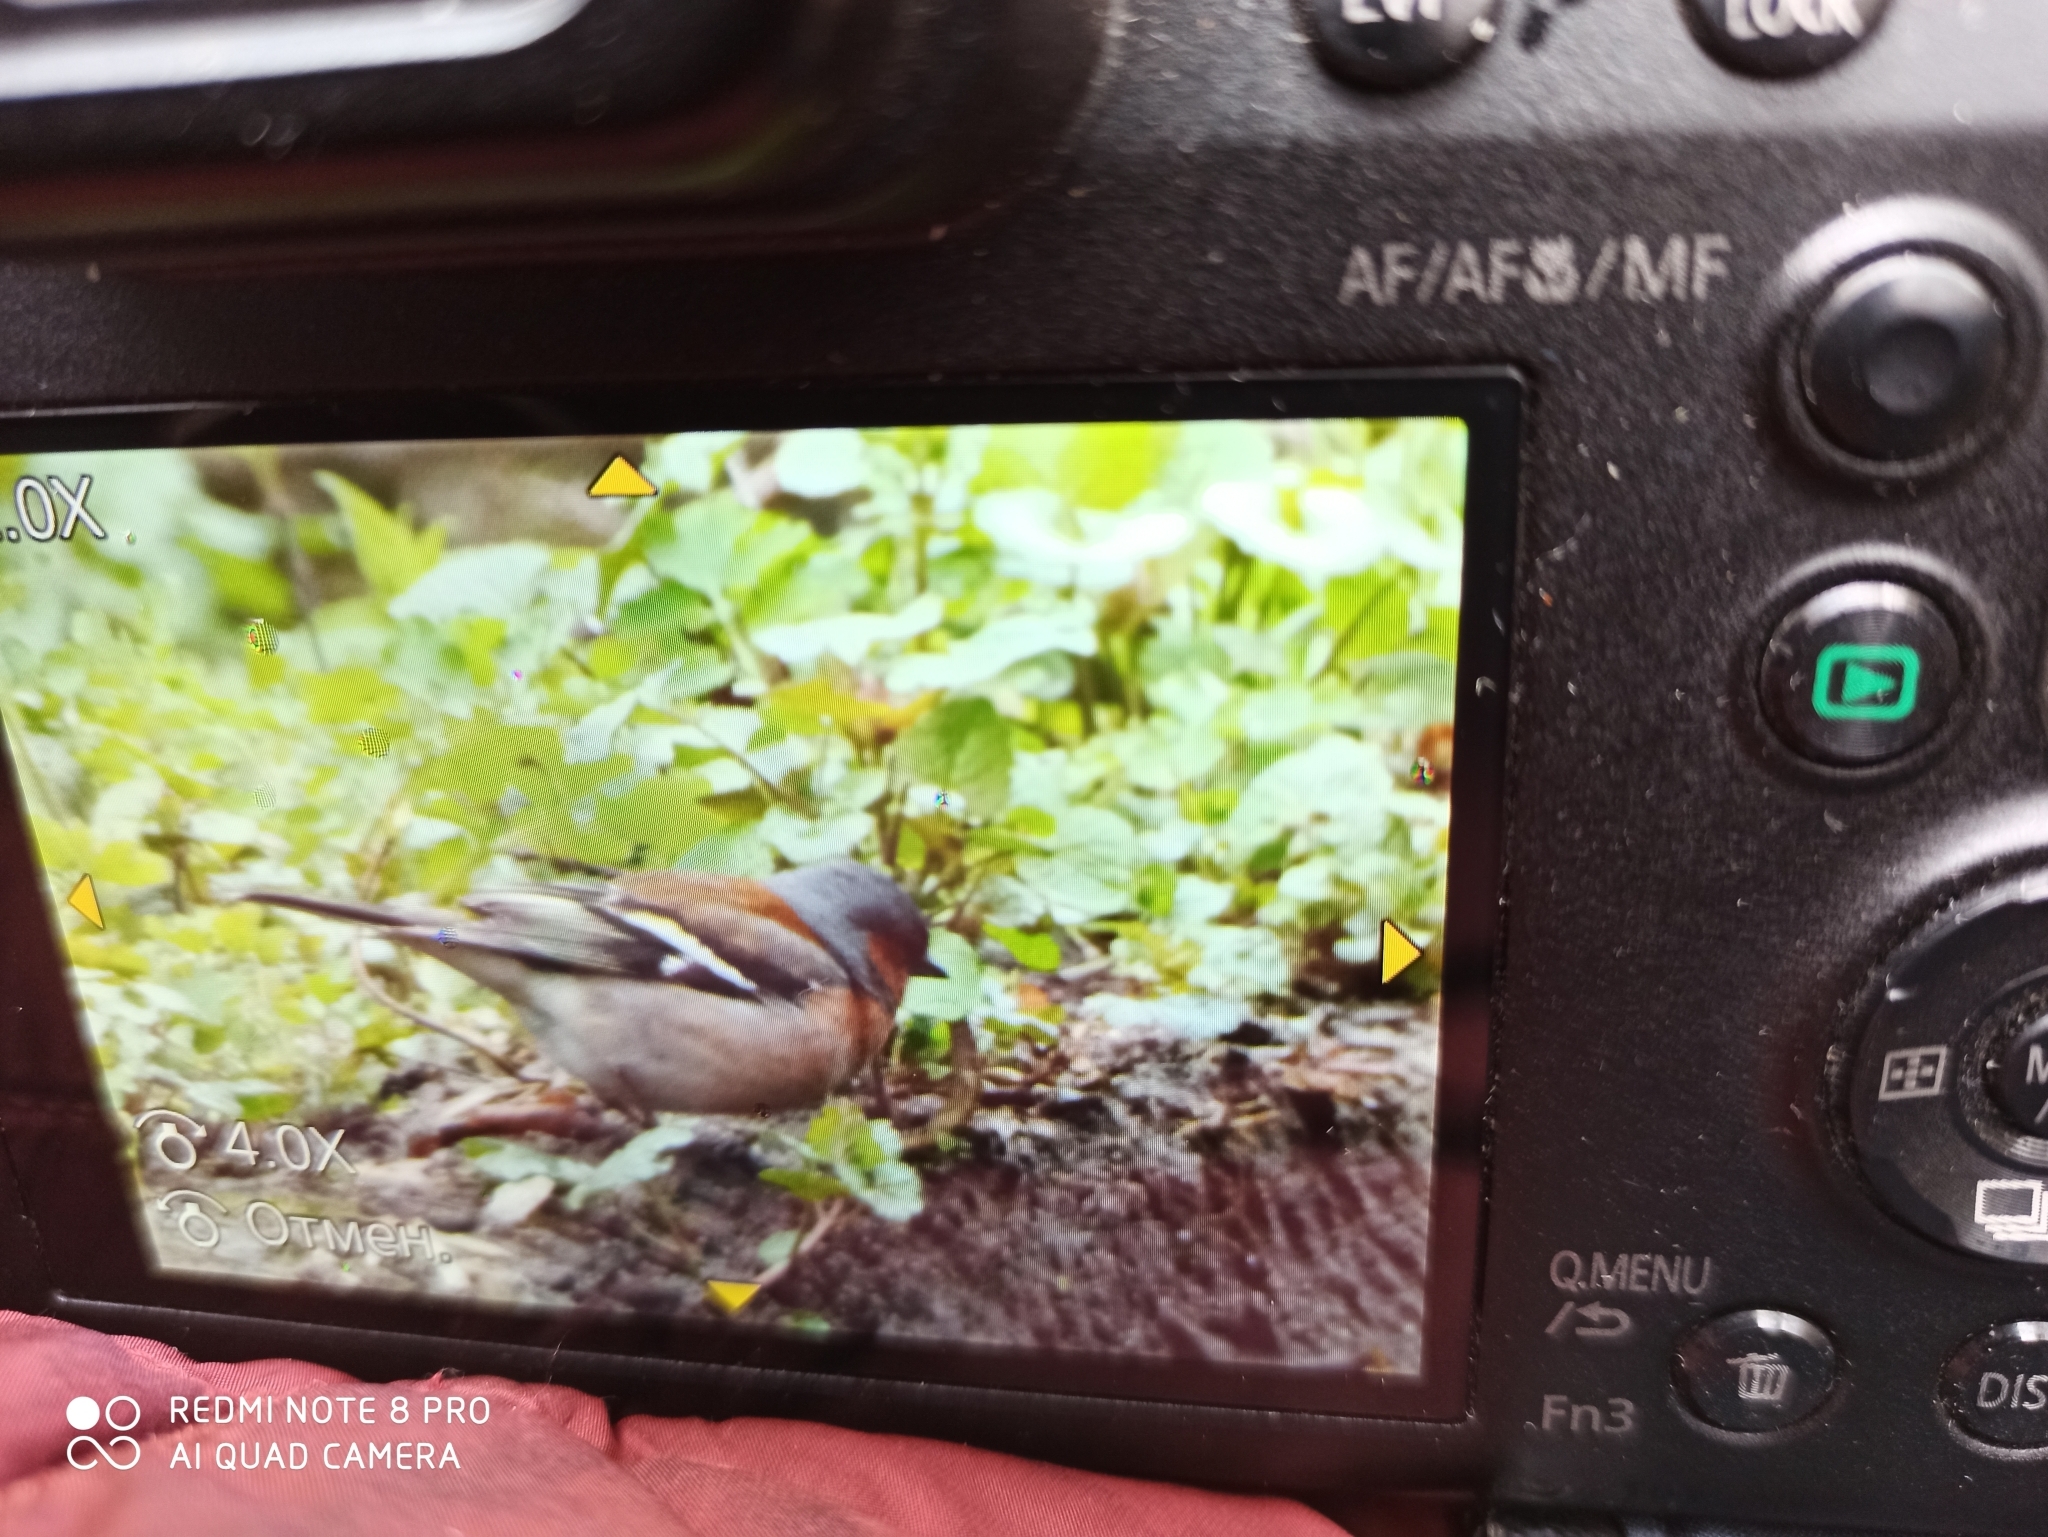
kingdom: Animalia
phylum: Chordata
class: Aves
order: Passeriformes
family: Fringillidae
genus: Fringilla
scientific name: Fringilla coelebs
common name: Common chaffinch
